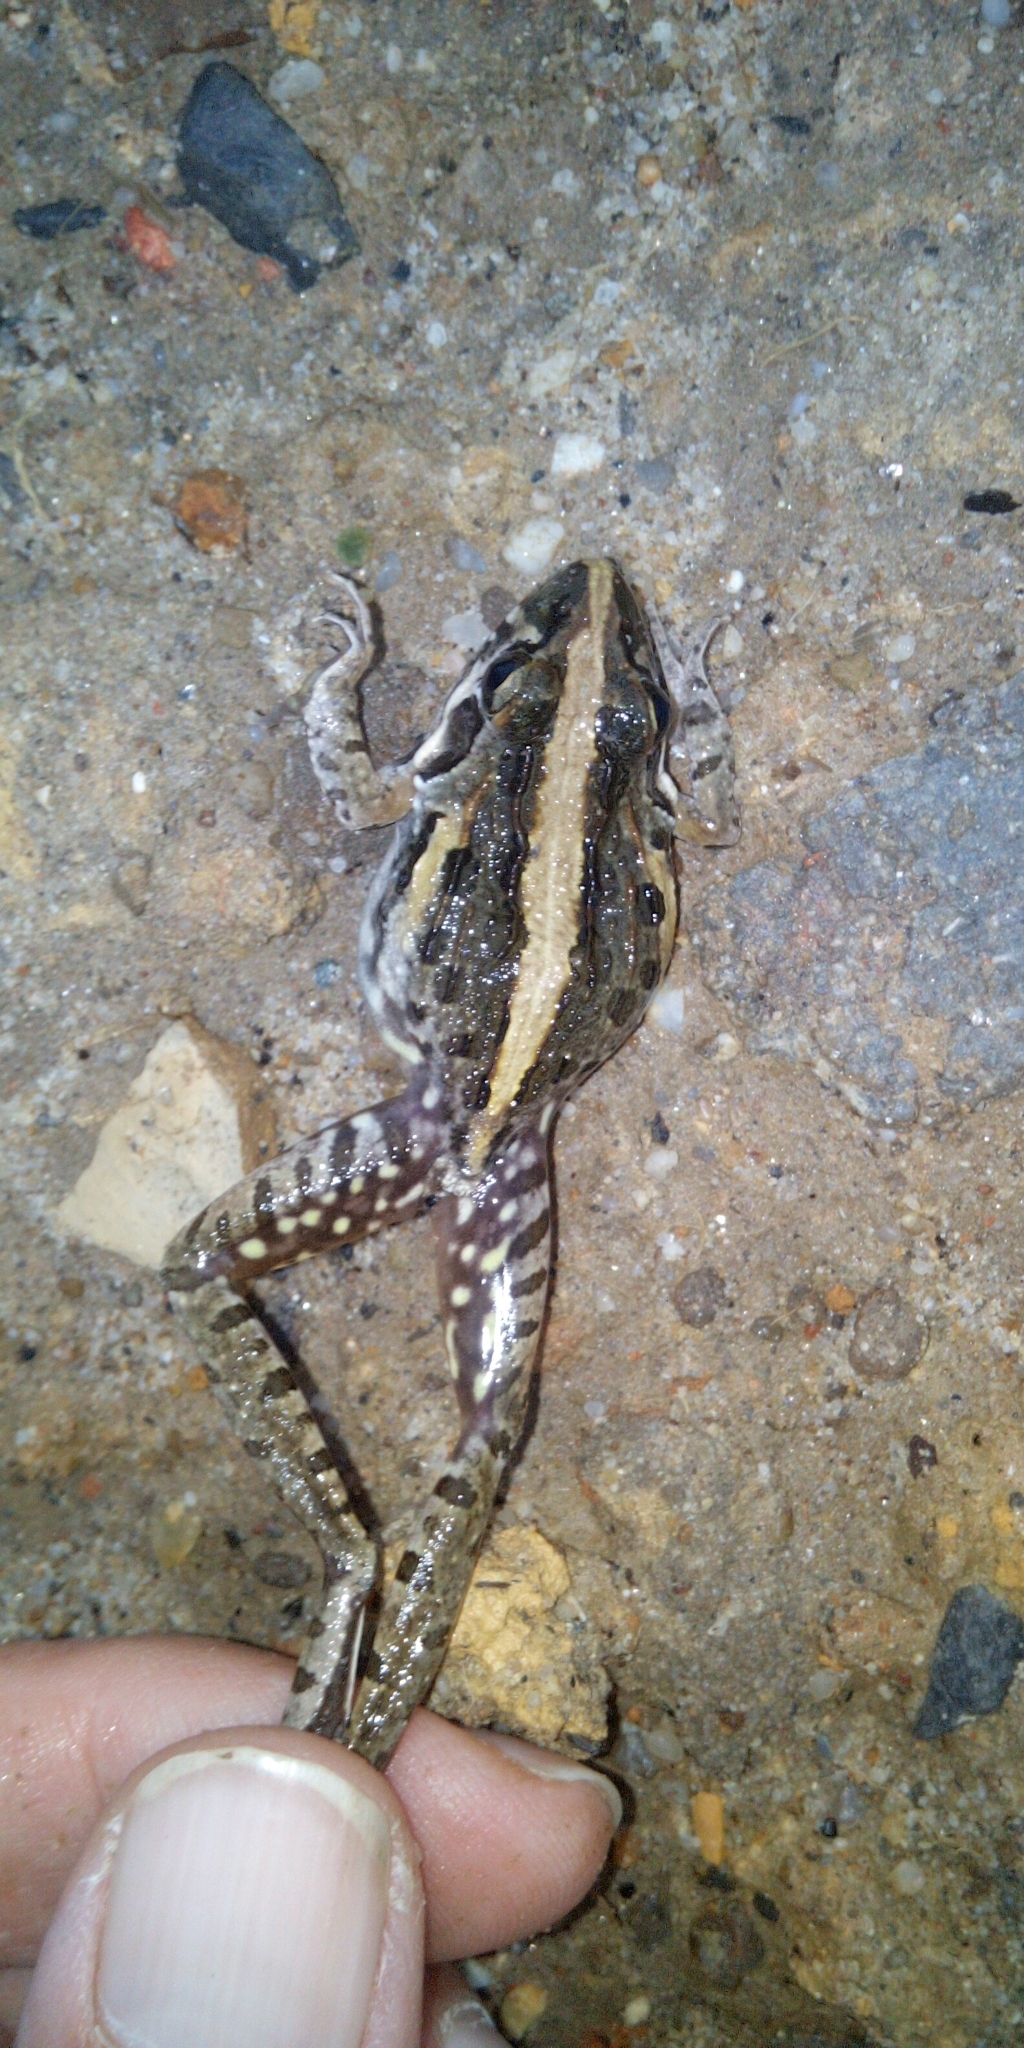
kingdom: Animalia
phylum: Chordata
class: Amphibia
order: Anura
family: Pyxicephalidae
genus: Strongylopus
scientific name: Strongylopus grayii
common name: Gray's stream frog
